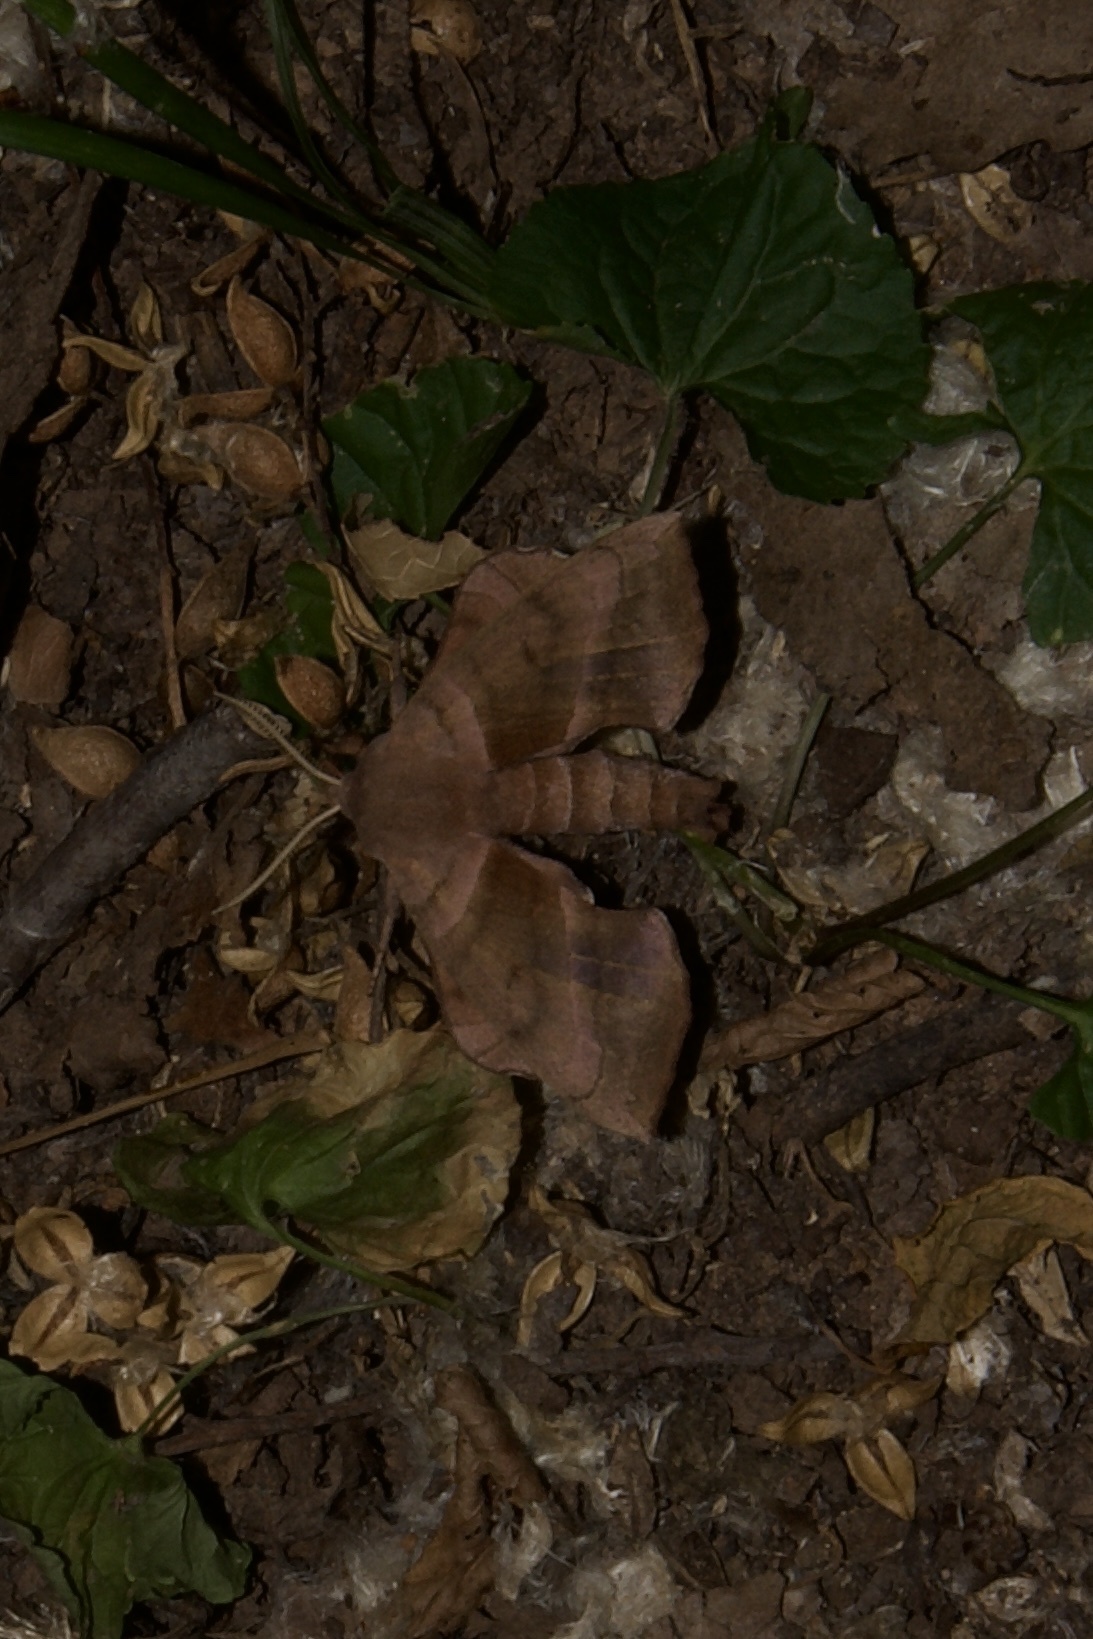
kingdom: Animalia
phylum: Arthropoda
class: Insecta
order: Lepidoptera
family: Sphingidae
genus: Amorpha
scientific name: Amorpha juglandis
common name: Walnut sphinx
